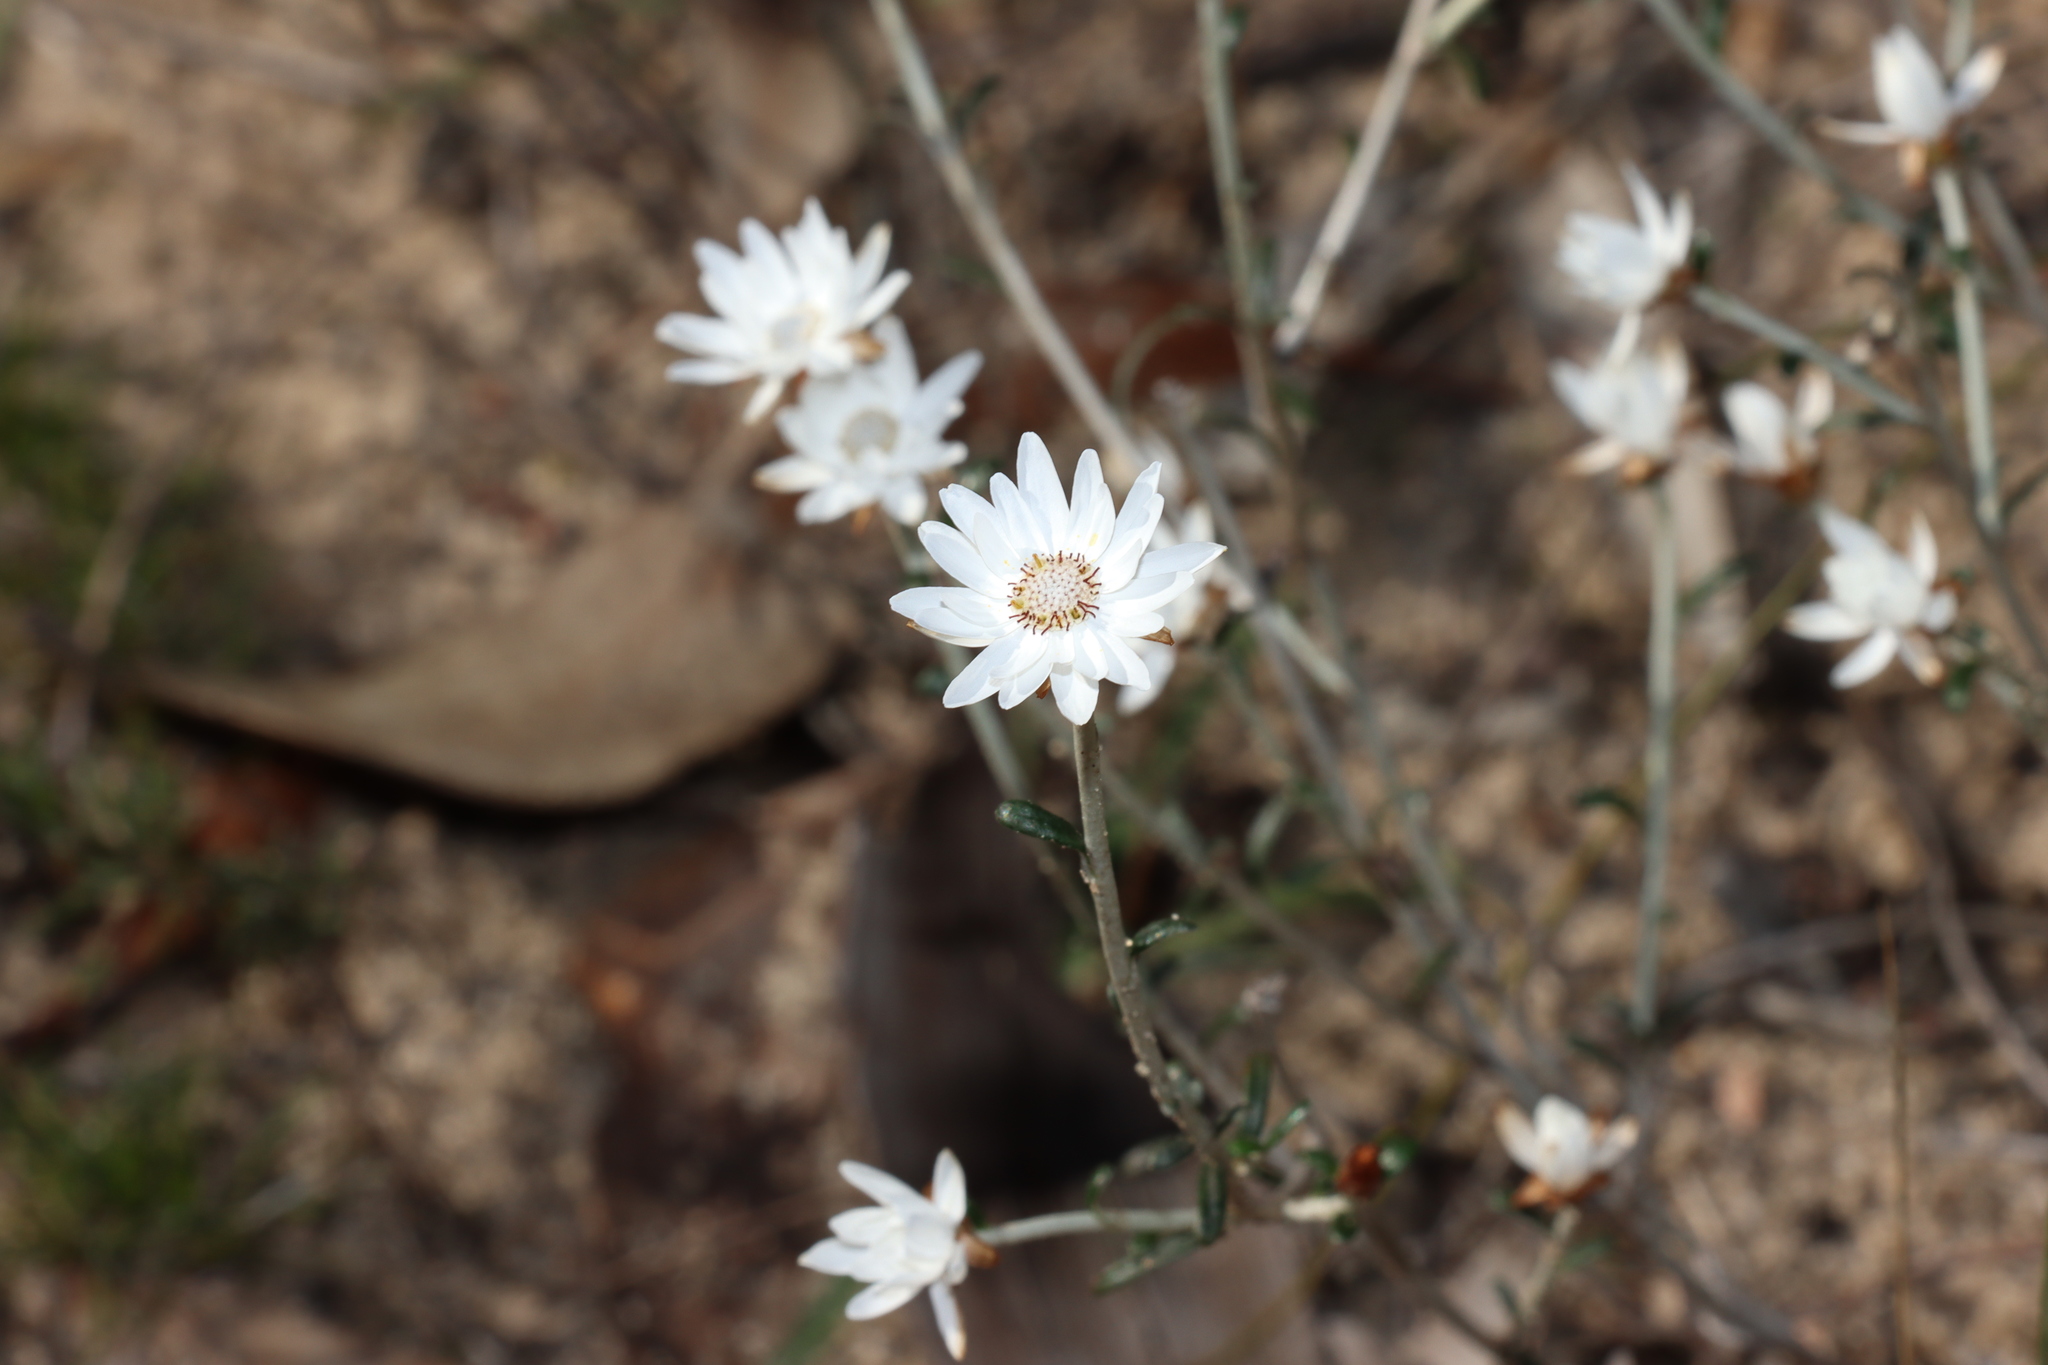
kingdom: Plantae
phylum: Tracheophyta
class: Magnoliopsida
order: Asterales
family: Asteraceae
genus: Argentipallium
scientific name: Argentipallium obtusifolium
